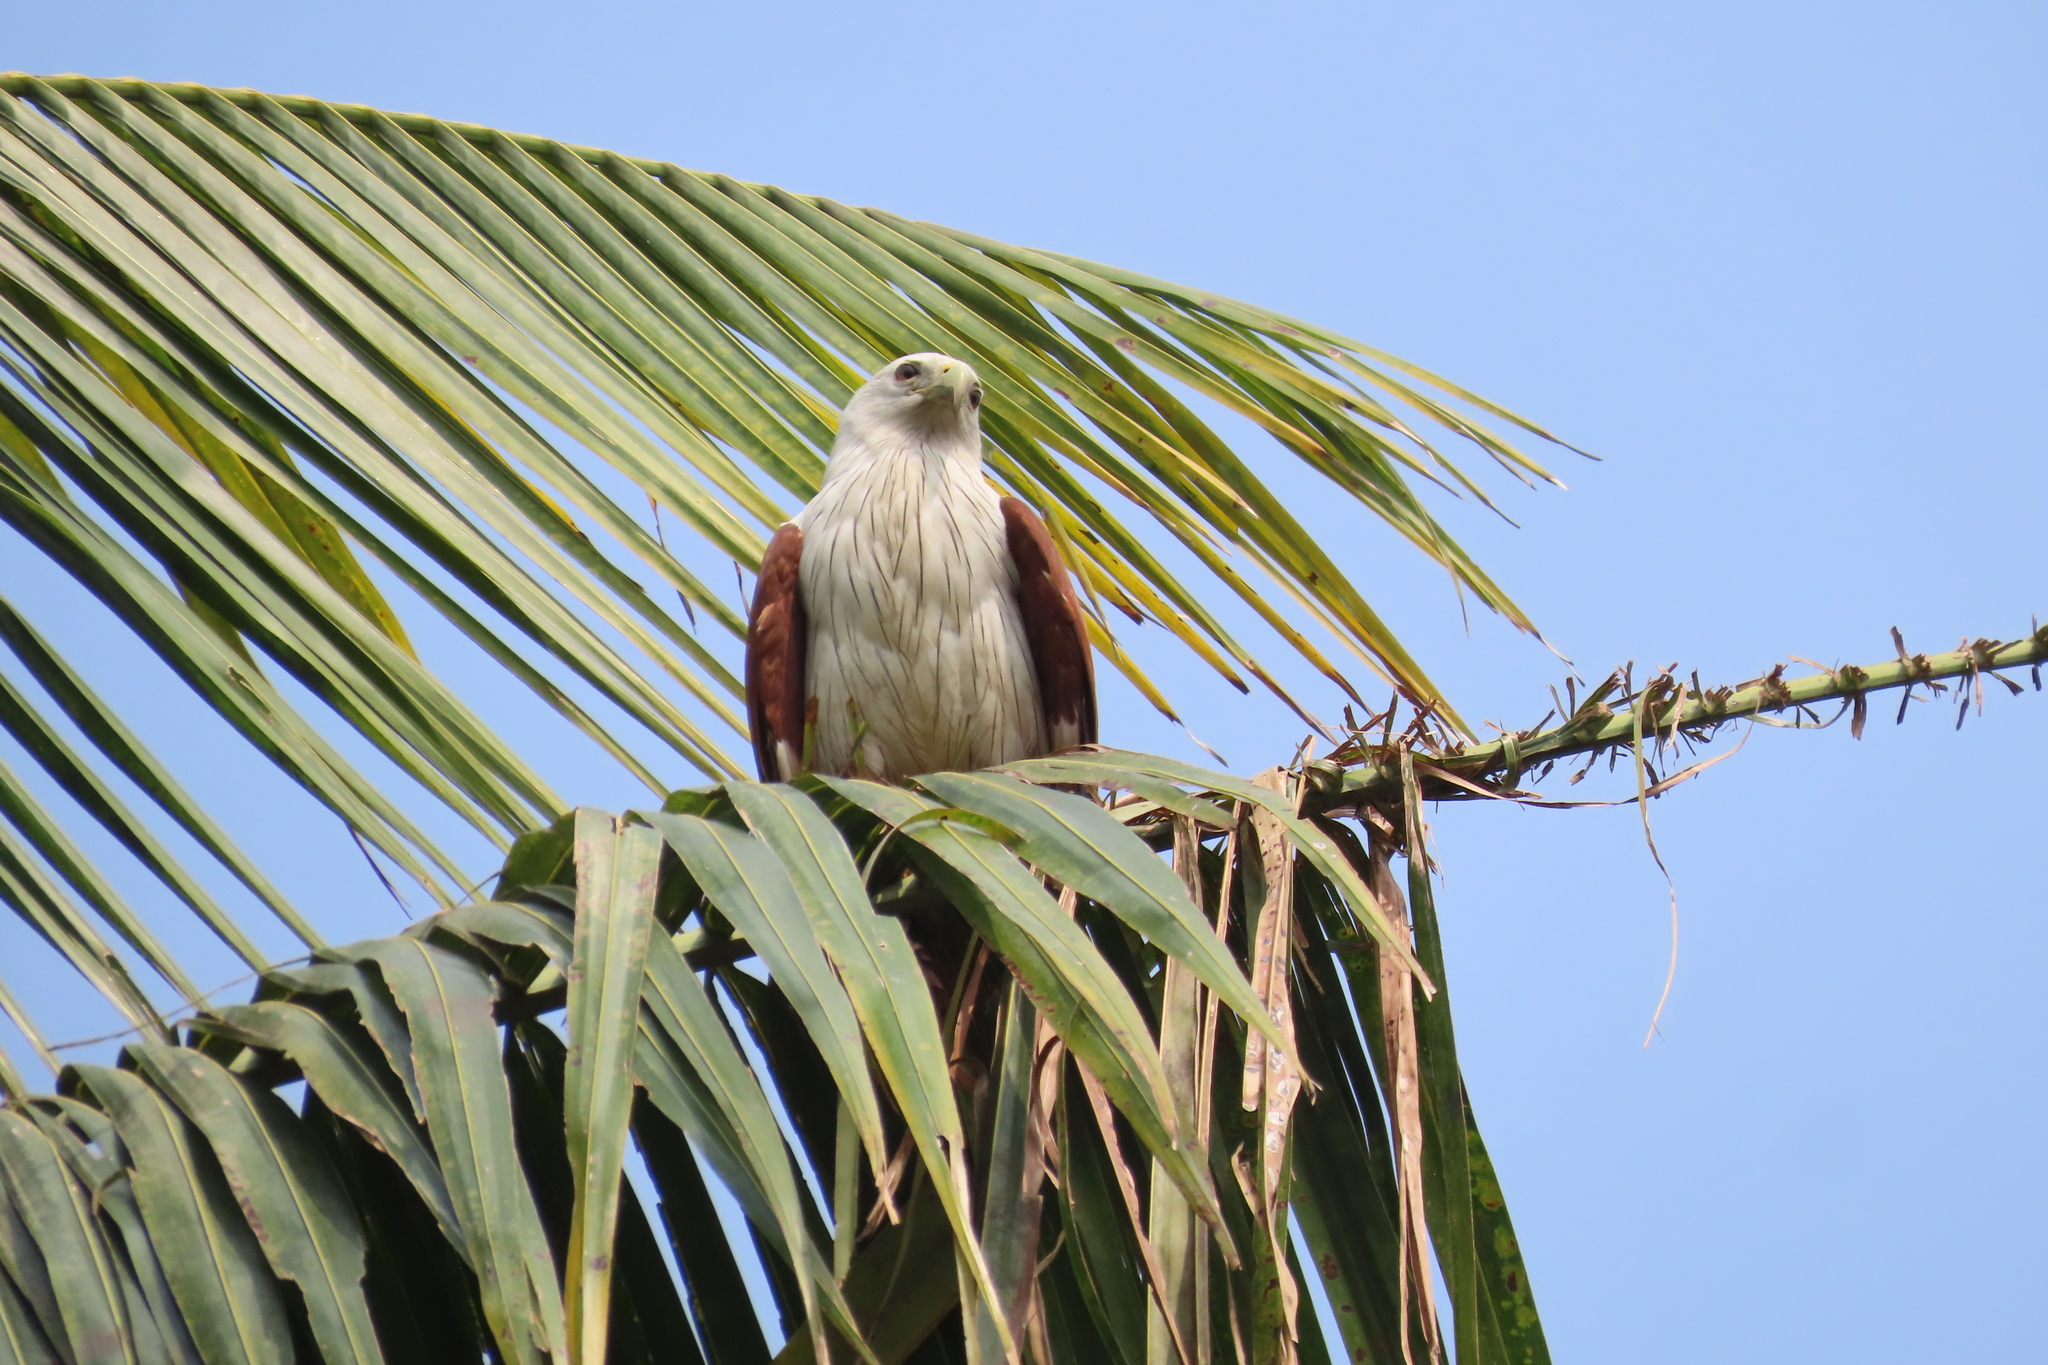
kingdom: Animalia
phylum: Chordata
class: Aves
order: Accipitriformes
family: Accipitridae
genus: Haliastur
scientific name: Haliastur indus
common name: Brahminy kite
